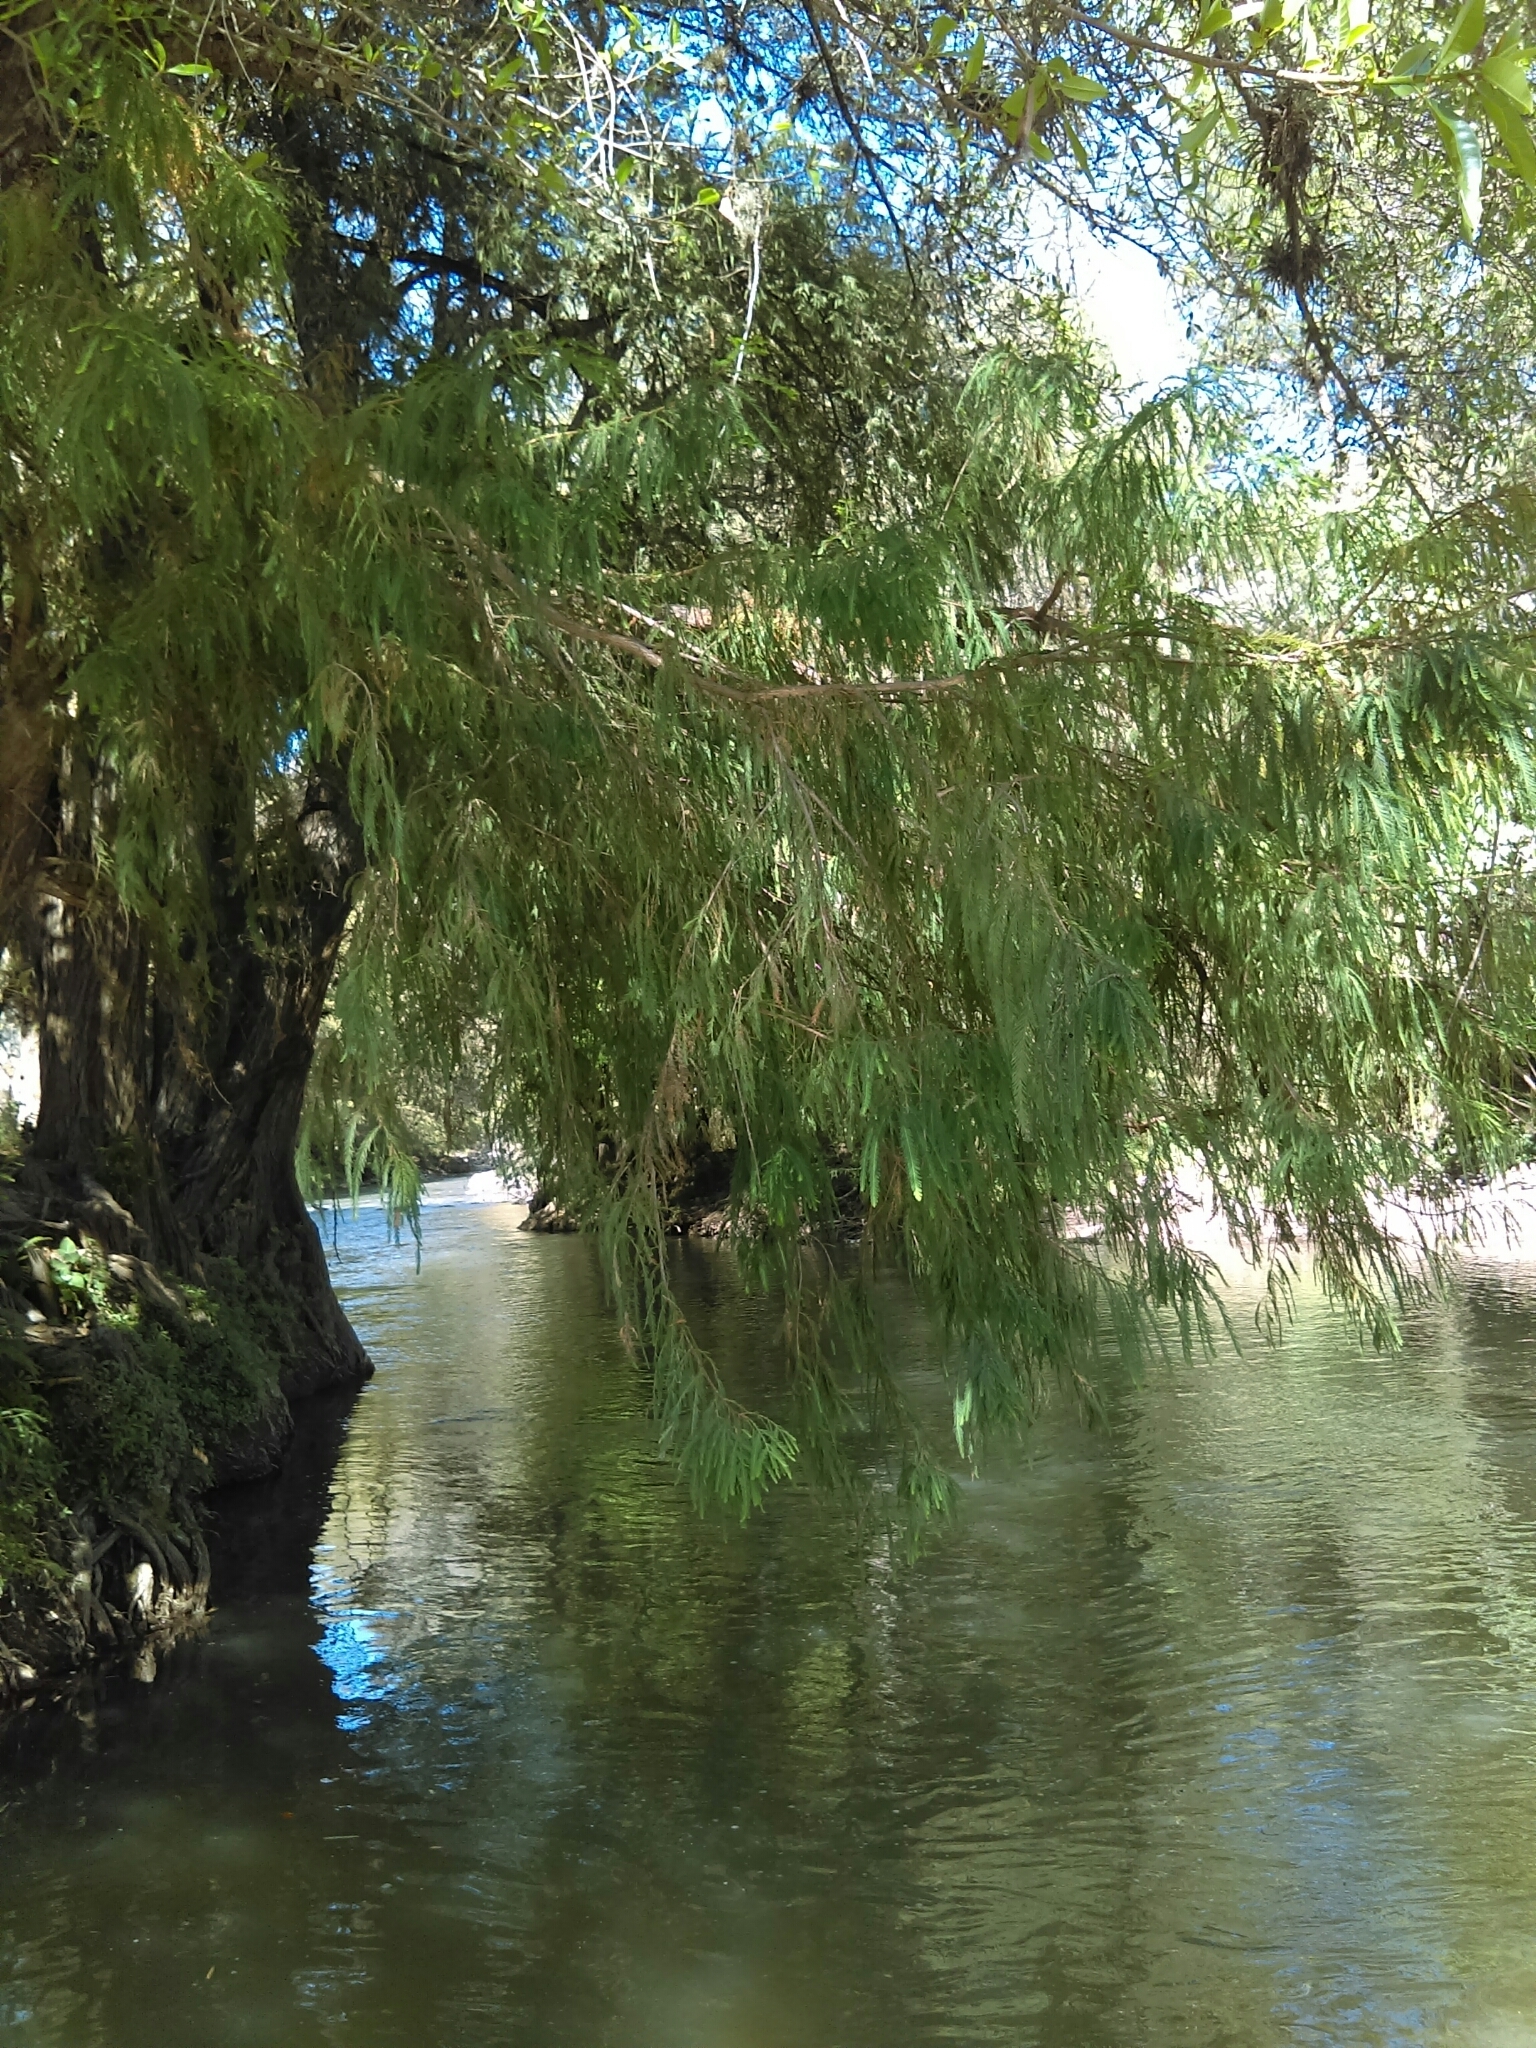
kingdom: Plantae
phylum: Tracheophyta
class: Pinopsida
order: Pinales
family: Cupressaceae
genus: Taxodium
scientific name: Taxodium mucronatum
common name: Montezume bald cypress
